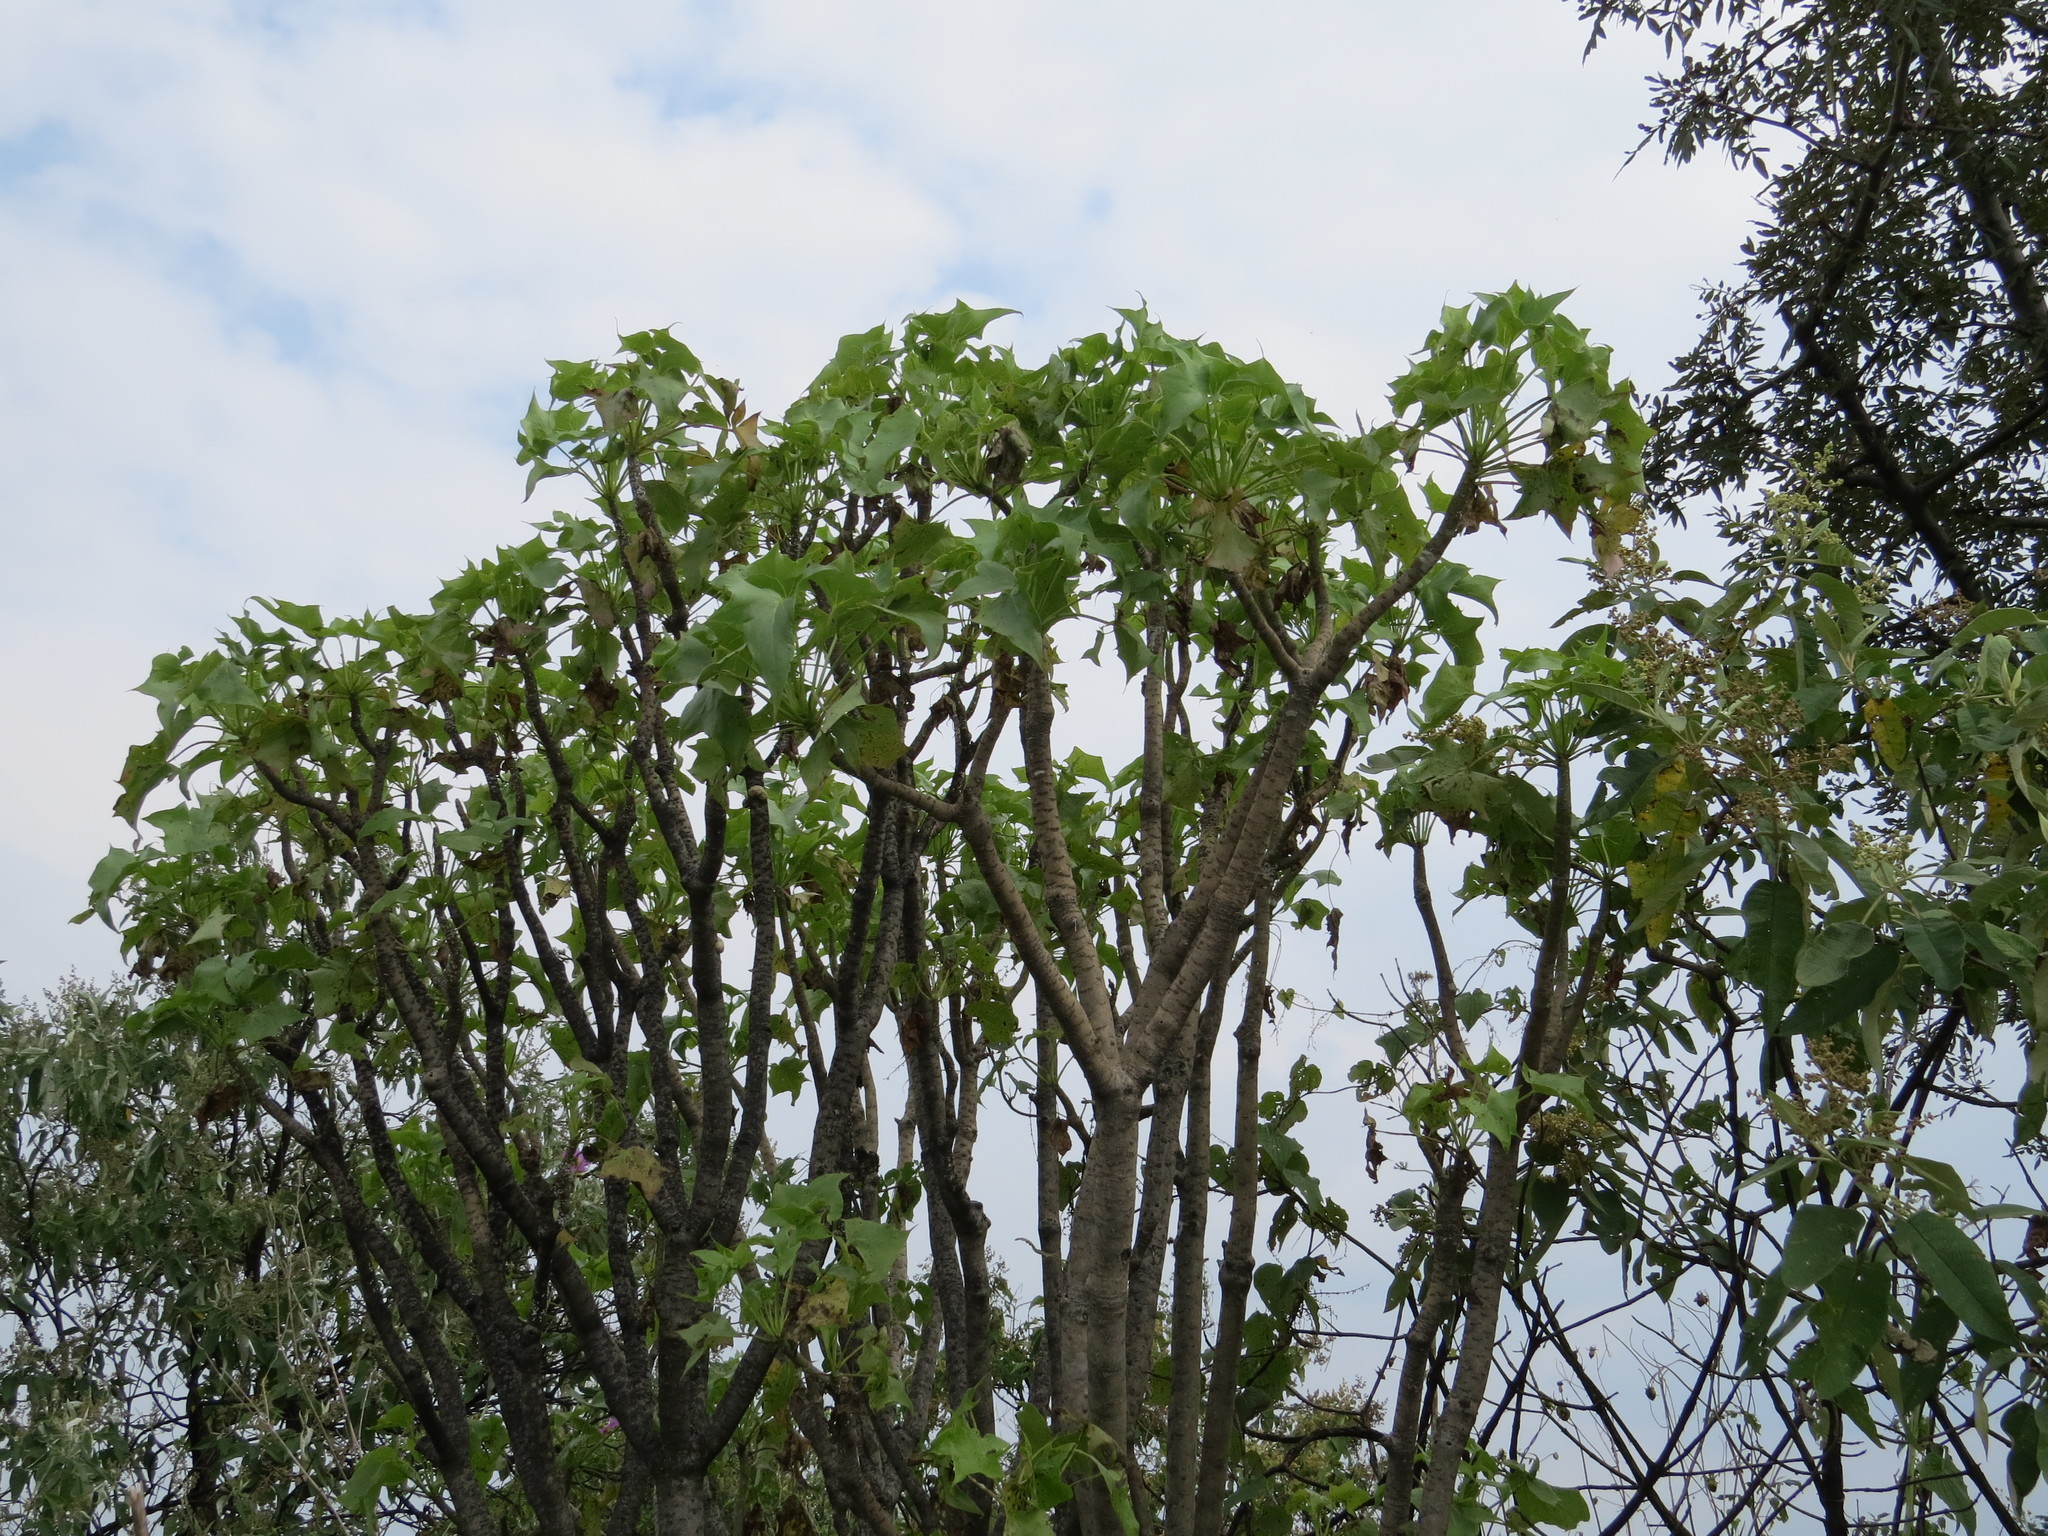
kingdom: Plantae
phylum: Tracheophyta
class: Magnoliopsida
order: Asterales
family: Asteraceae
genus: Pittocaulon
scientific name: Pittocaulon praecox
